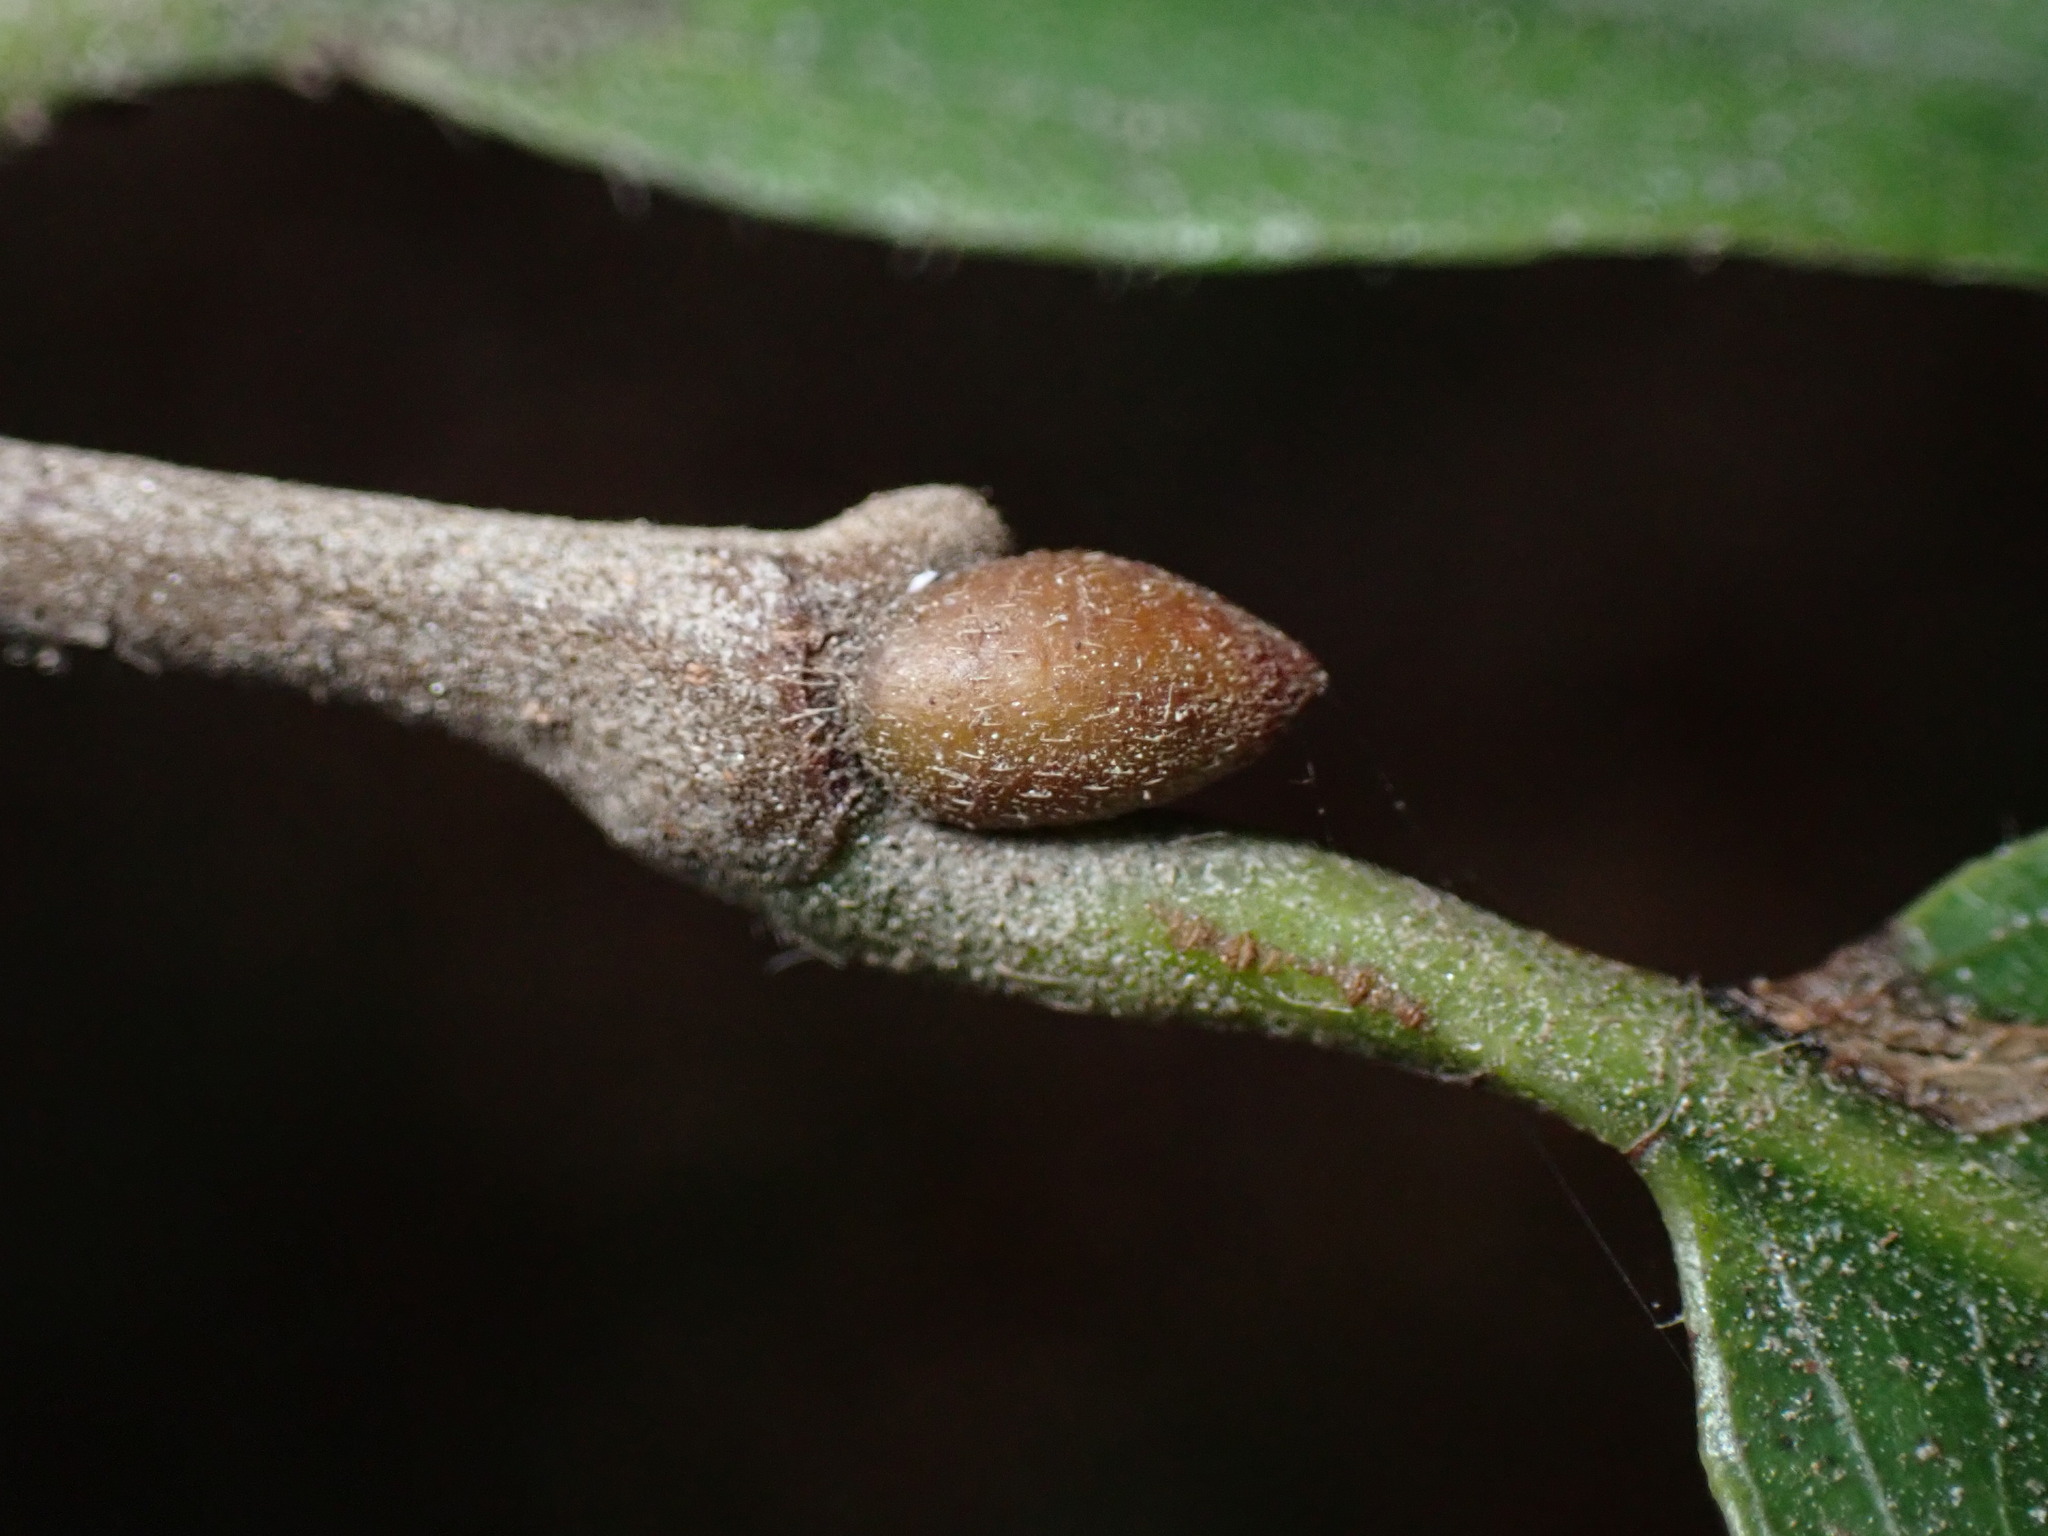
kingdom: Plantae
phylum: Tracheophyta
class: Magnoliopsida
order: Fagales
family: Fagaceae
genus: Castanea
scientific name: Castanea sativa
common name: Sweet chestnut
